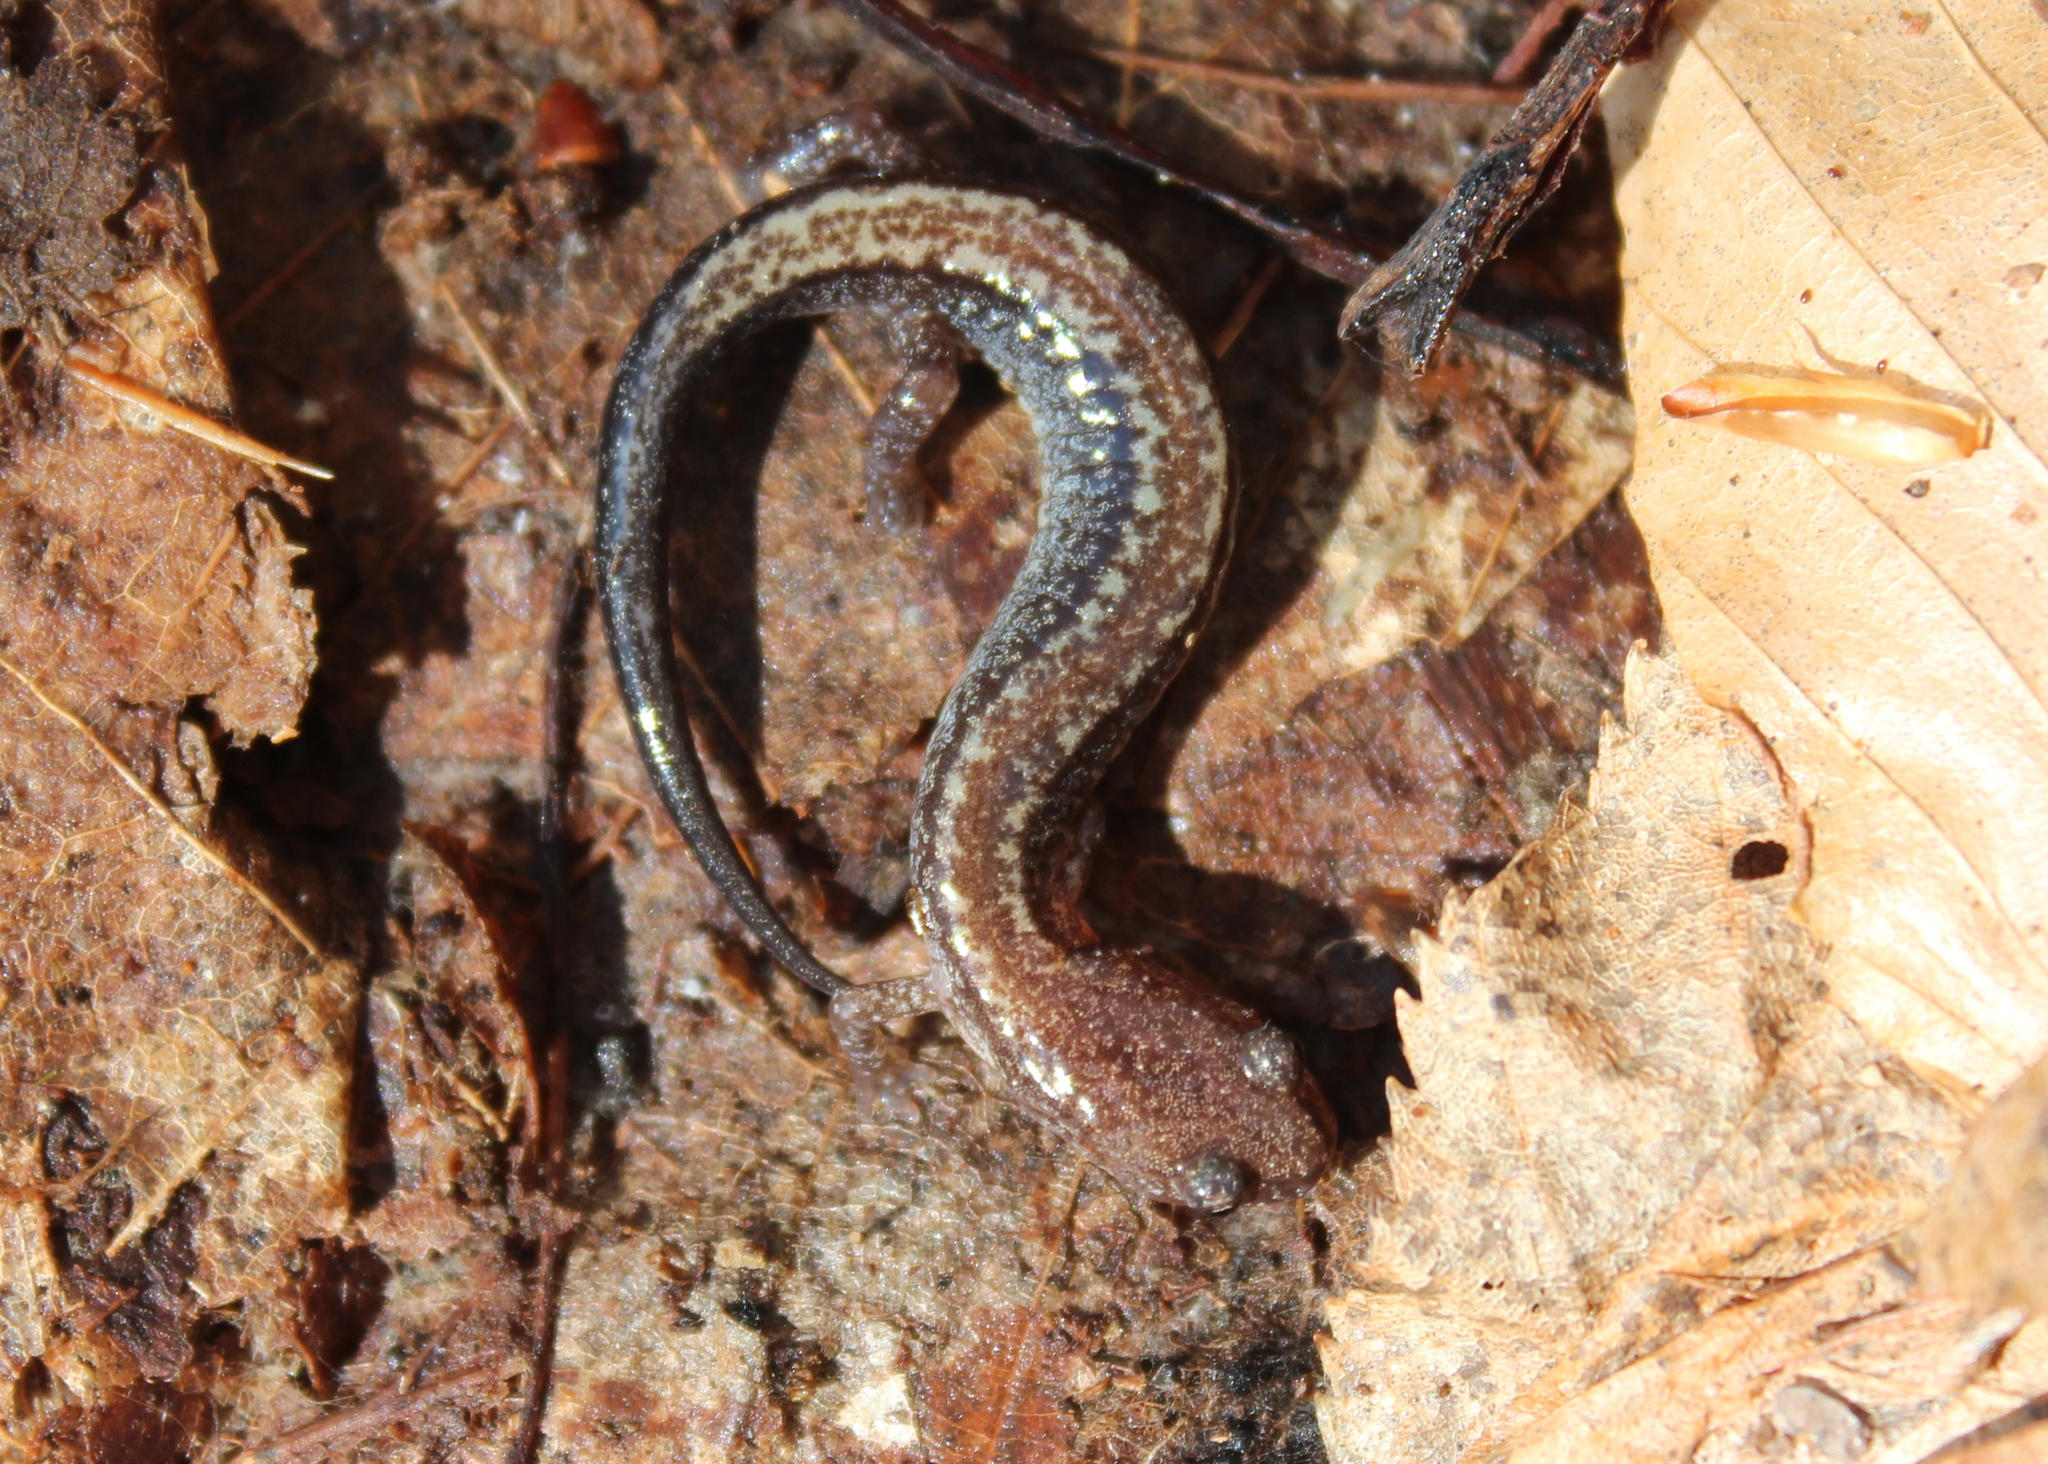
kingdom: Animalia
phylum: Chordata
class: Amphibia
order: Caudata
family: Plethodontidae
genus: Plethodon
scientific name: Plethodon cinereus
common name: Redback salamander
